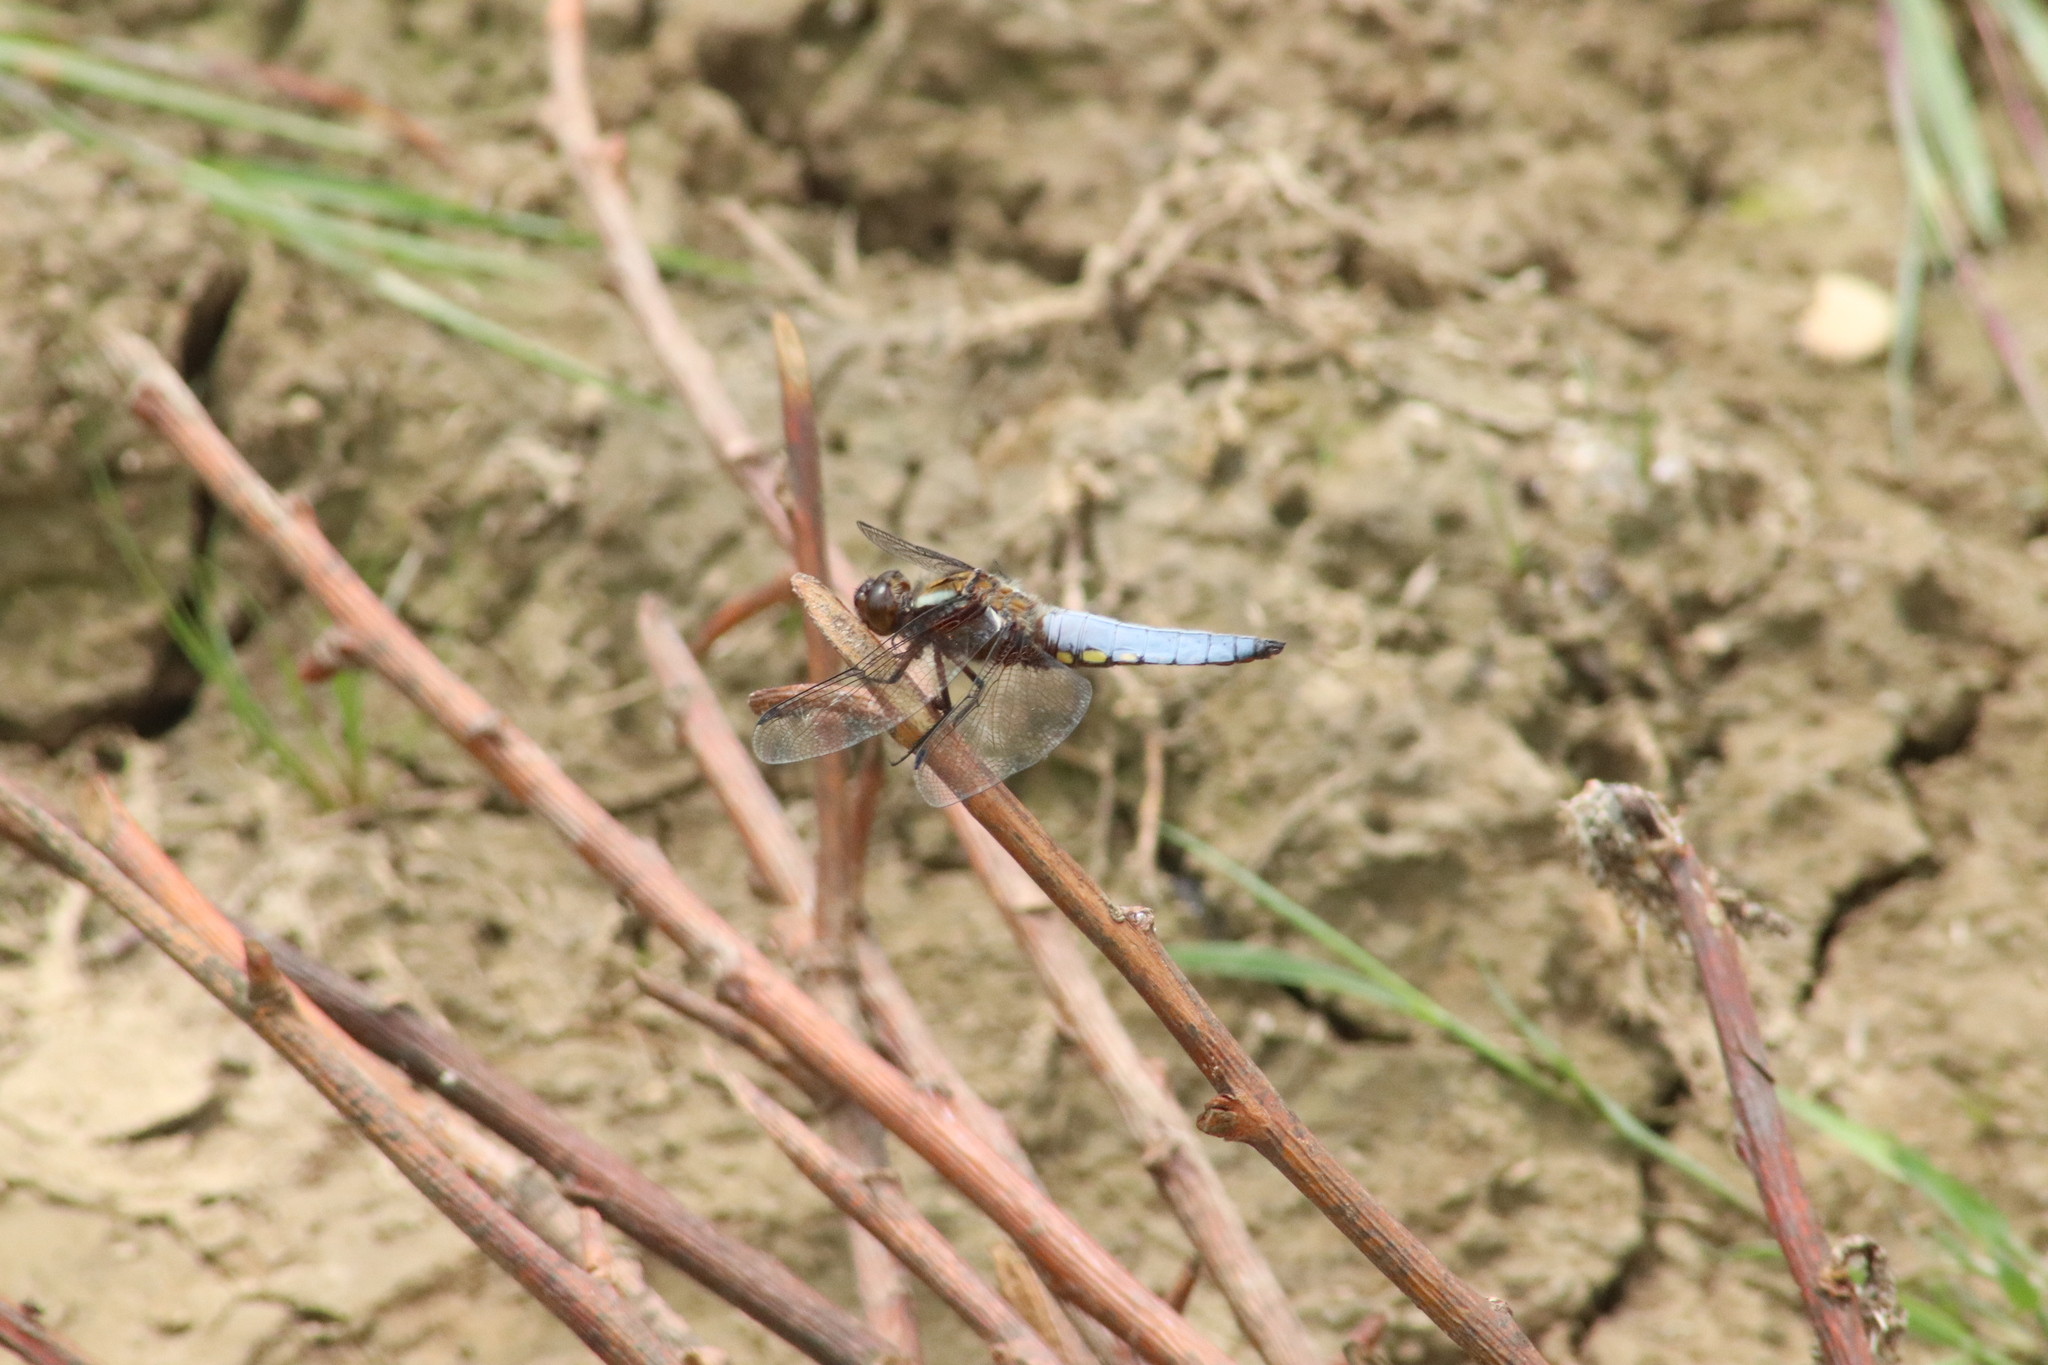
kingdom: Animalia
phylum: Arthropoda
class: Insecta
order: Odonata
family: Libellulidae
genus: Libellula
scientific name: Libellula depressa
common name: Broad-bodied chaser
